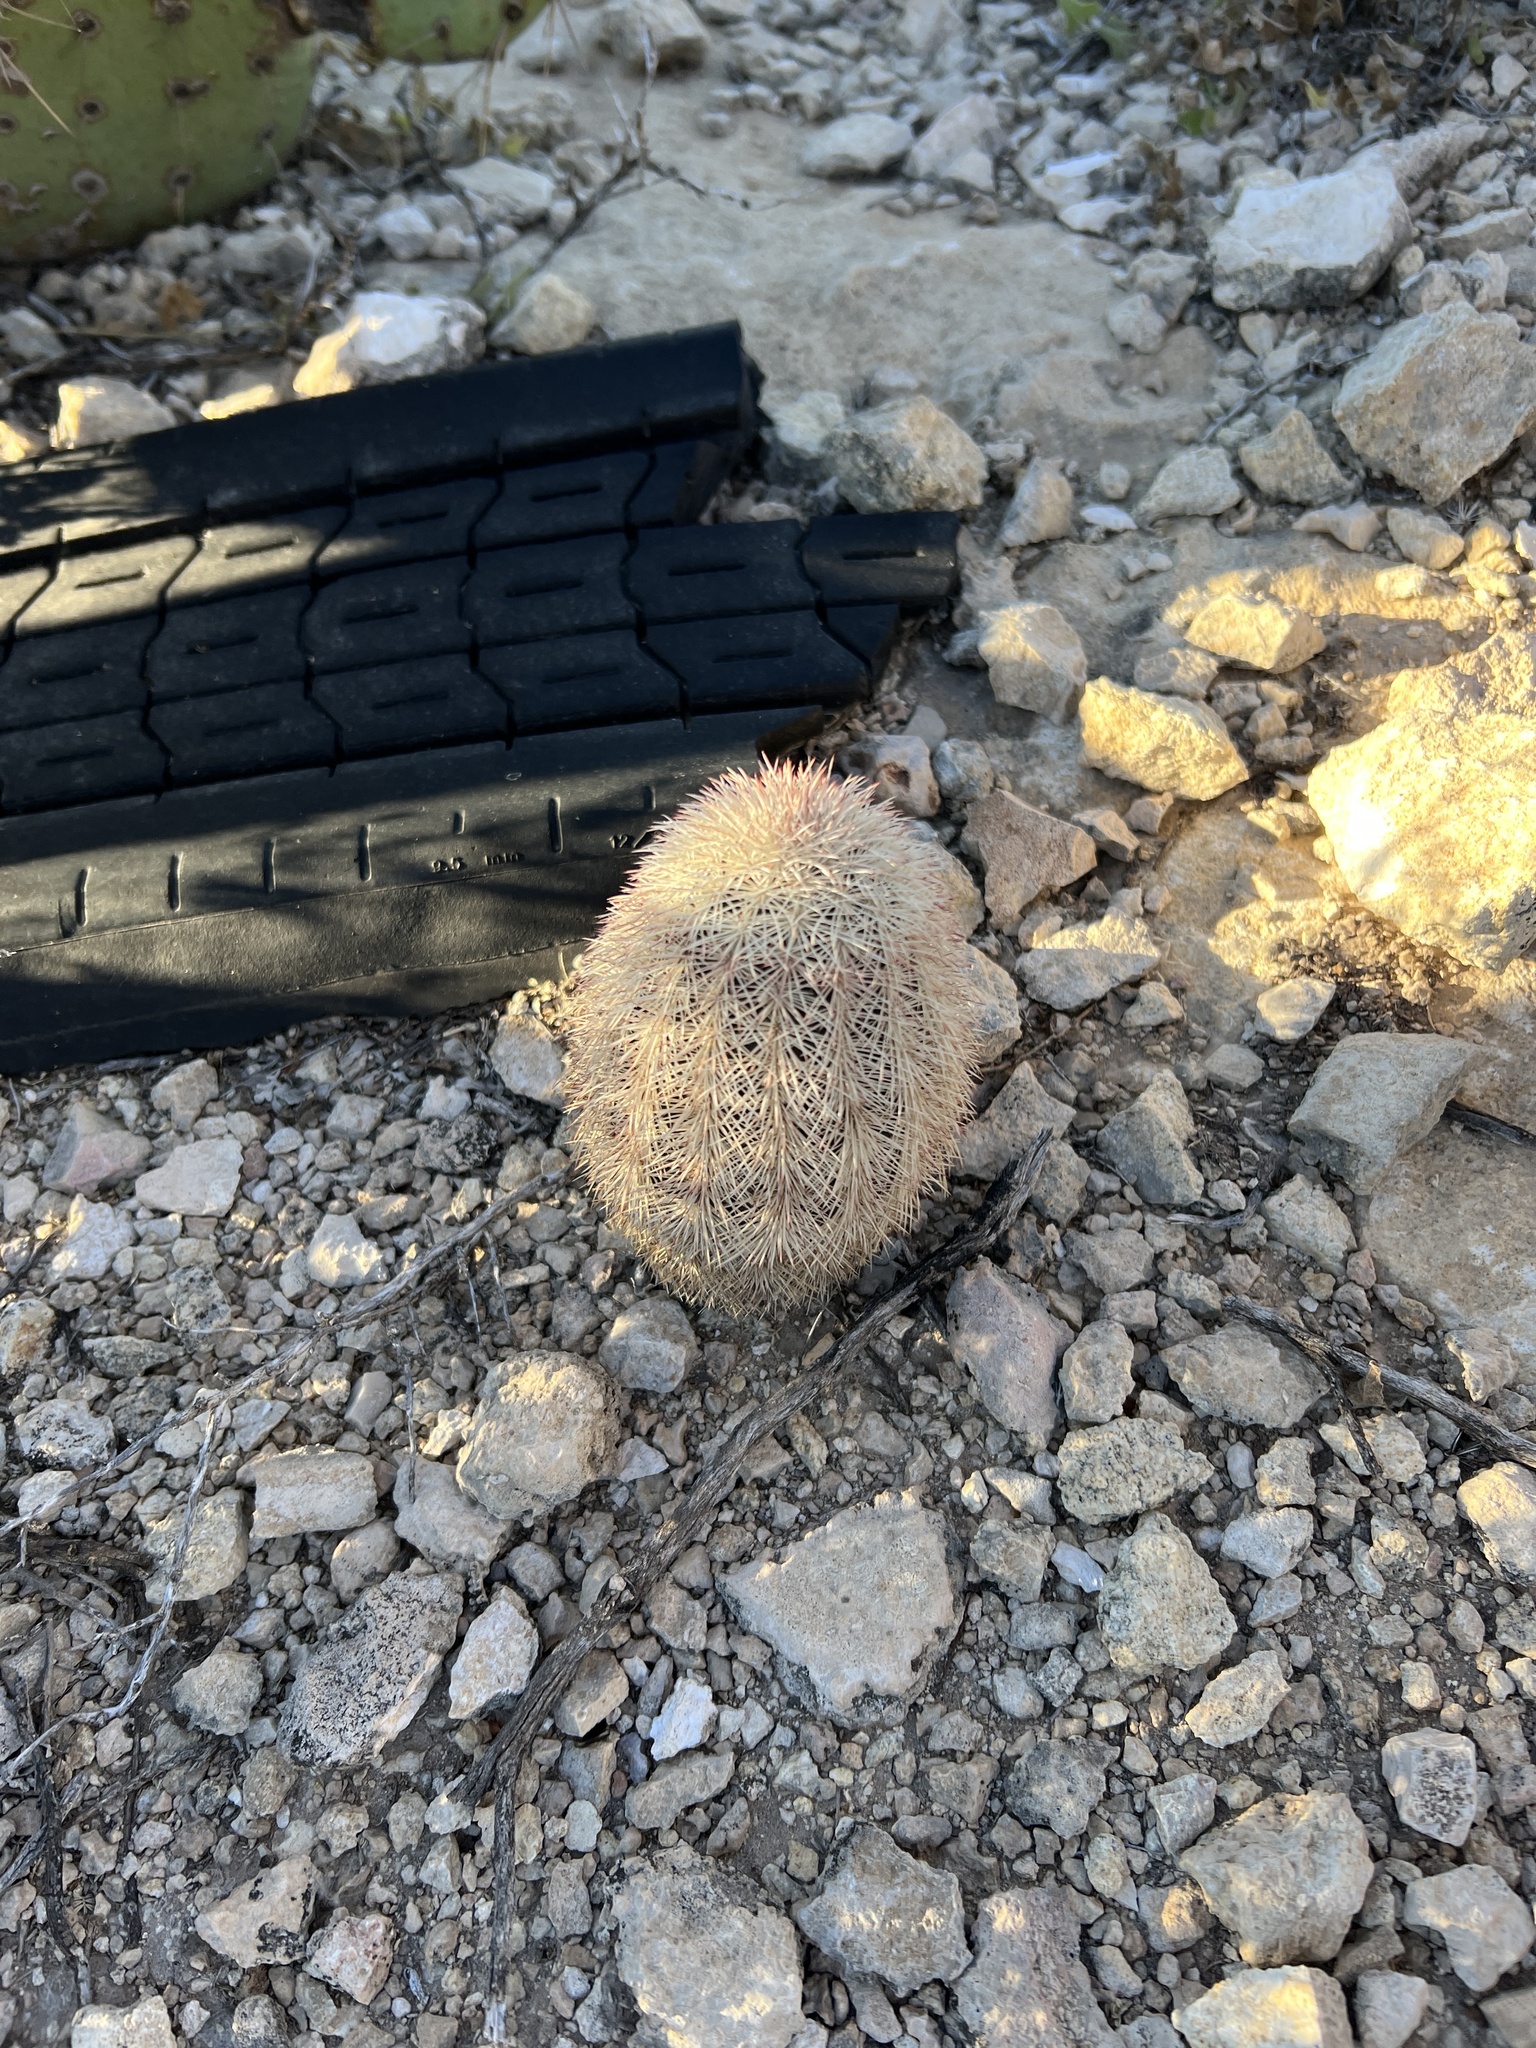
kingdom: Plantae
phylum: Tracheophyta
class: Magnoliopsida
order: Caryophyllales
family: Cactaceae
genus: Echinocereus
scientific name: Echinocereus dasyacanthus
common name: Spiny hedgehog cactus
